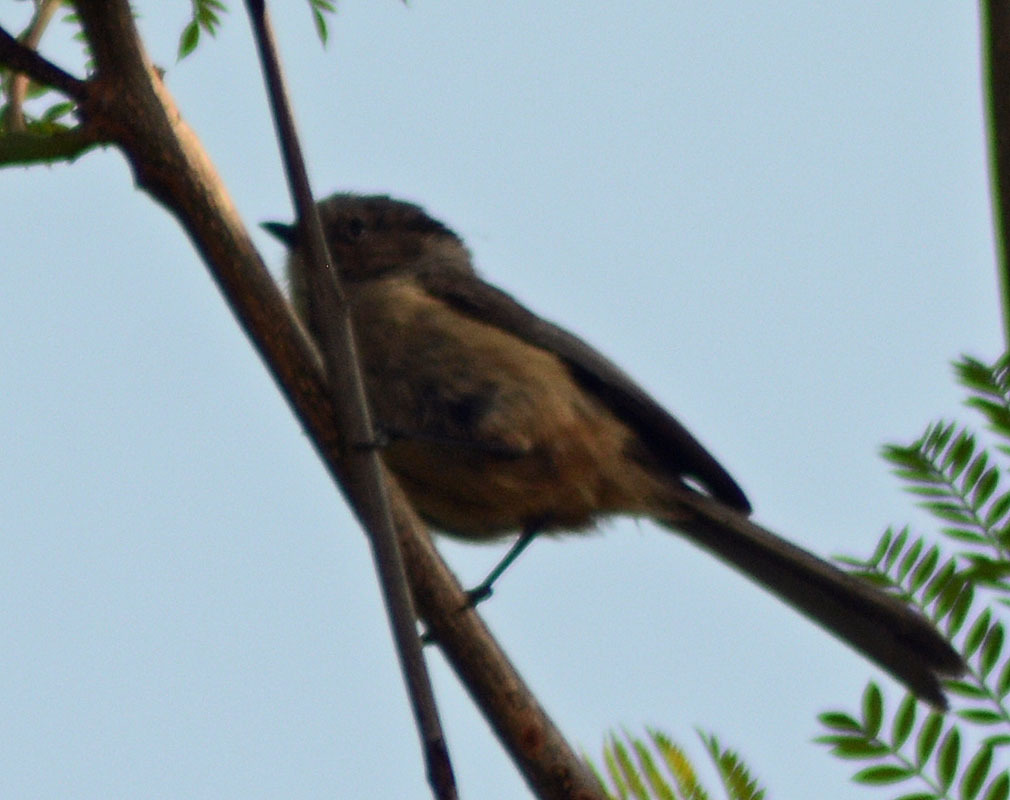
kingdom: Animalia
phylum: Chordata
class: Aves
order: Passeriformes
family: Aegithalidae
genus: Psaltriparus
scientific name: Psaltriparus minimus
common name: American bushtit
